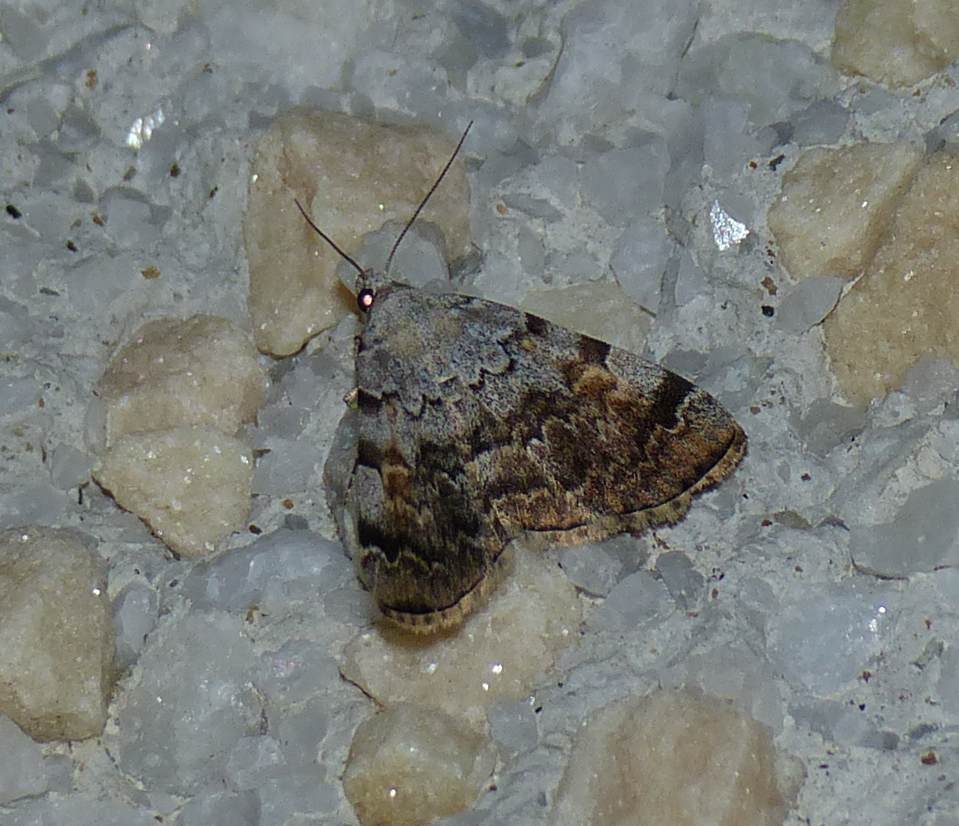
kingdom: Animalia
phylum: Arthropoda
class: Insecta
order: Lepidoptera
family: Erebidae
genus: Idia
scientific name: Idia americalis
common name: American idia moth
